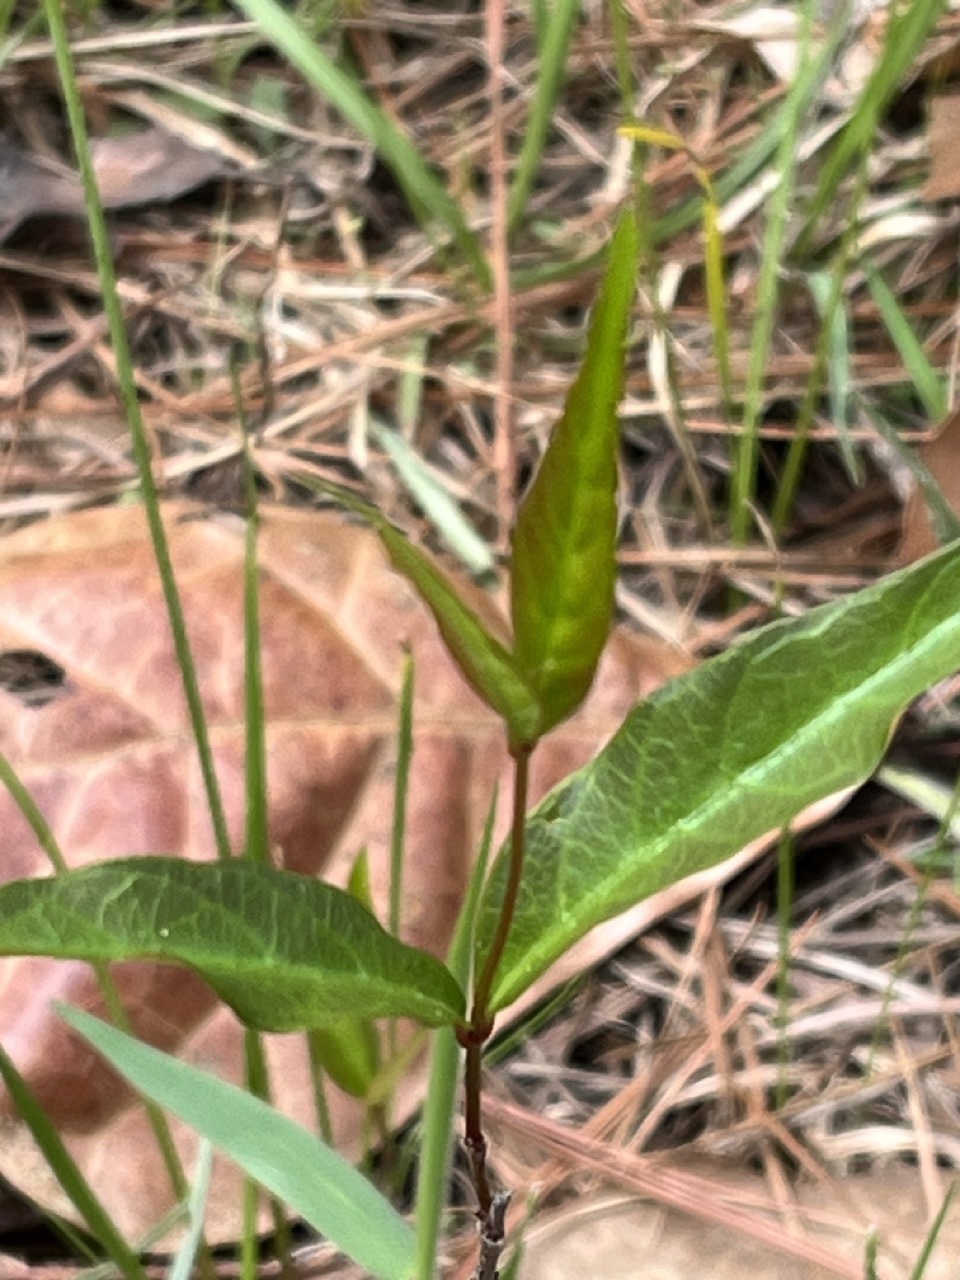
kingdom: Plantae
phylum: Tracheophyta
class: Magnoliopsida
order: Gentianales
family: Apocynaceae
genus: Thyrsanthella
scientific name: Thyrsanthella difformis
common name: Climbing dogbane
